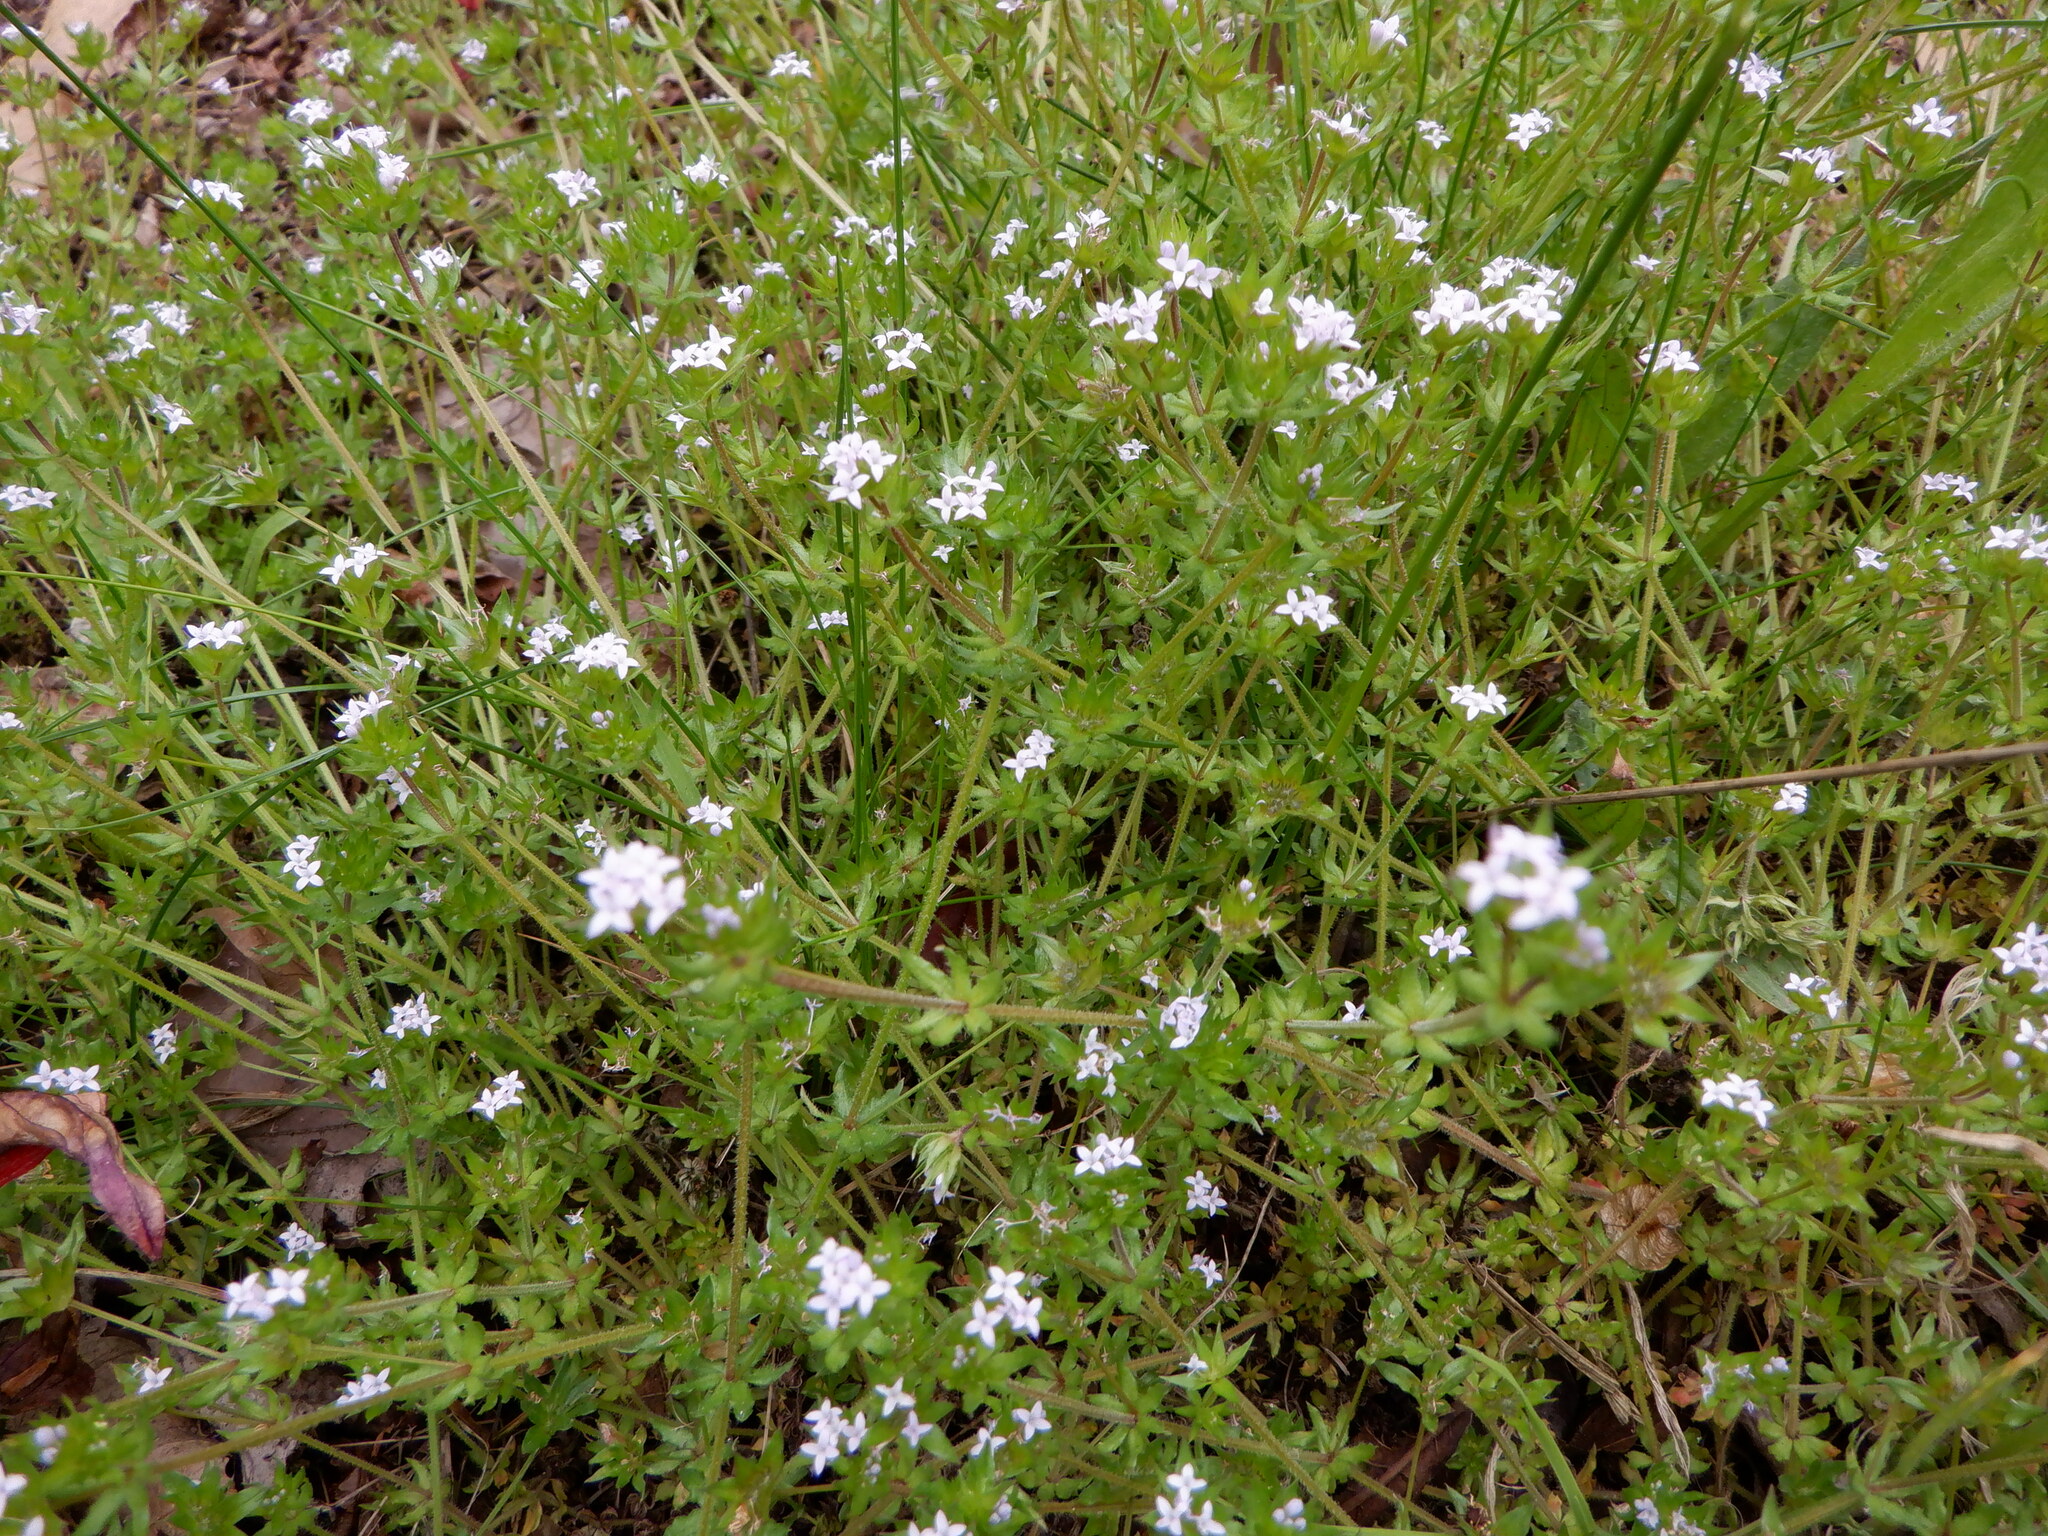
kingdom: Plantae
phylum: Tracheophyta
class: Magnoliopsida
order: Gentianales
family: Rubiaceae
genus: Sherardia
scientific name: Sherardia arvensis
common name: Field madder
